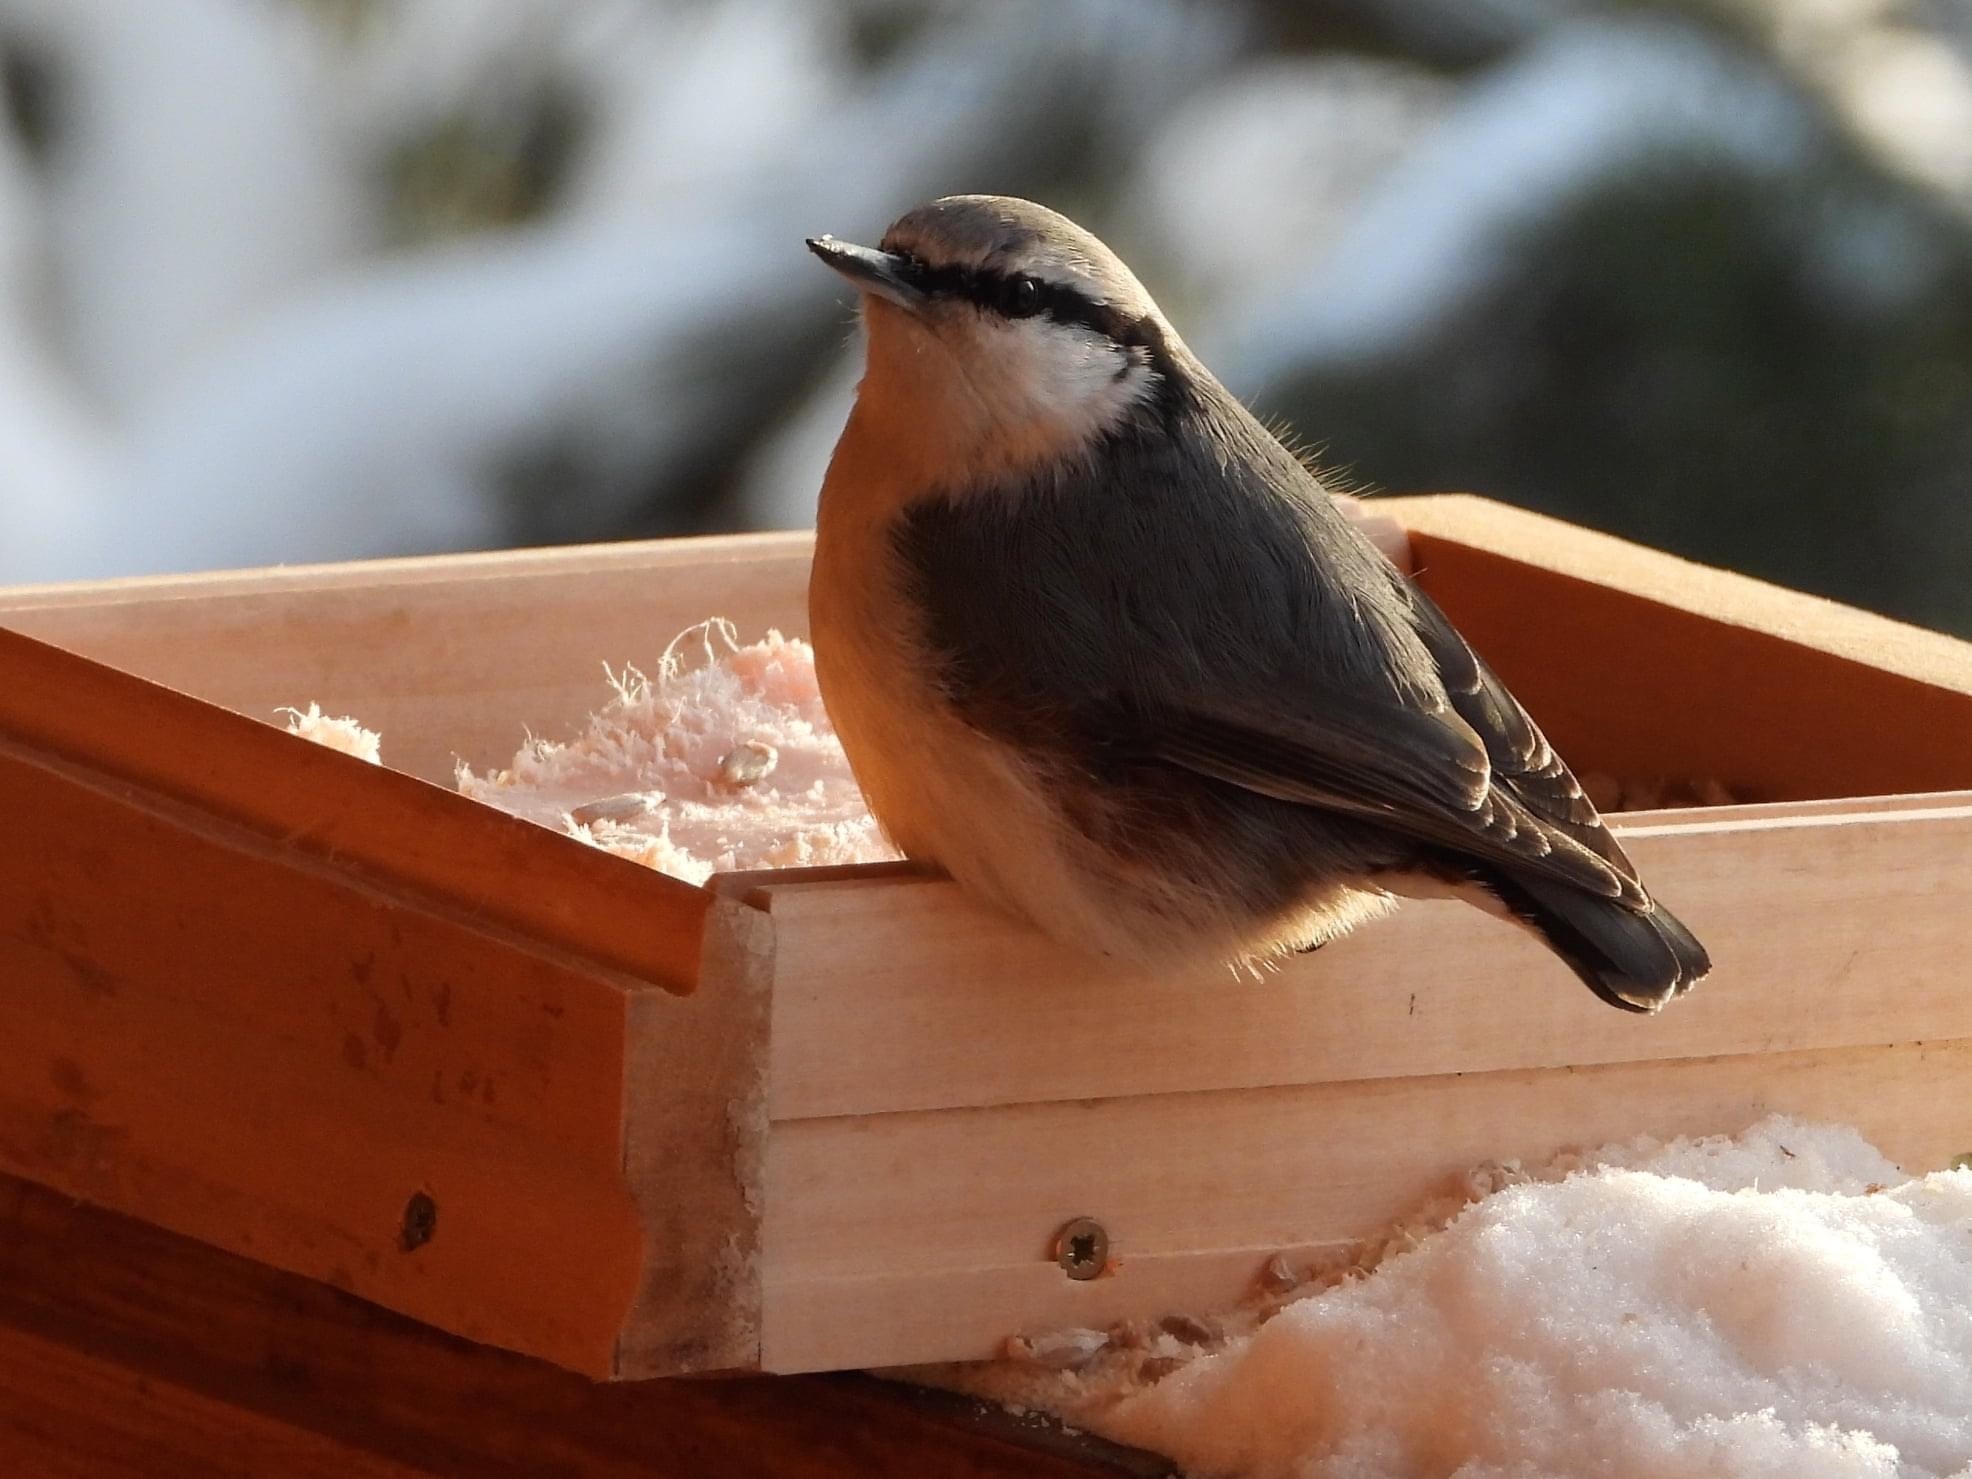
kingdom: Animalia
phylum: Chordata
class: Aves
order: Passeriformes
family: Sittidae
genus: Sitta
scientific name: Sitta europaea
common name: Eurasian nuthatch
